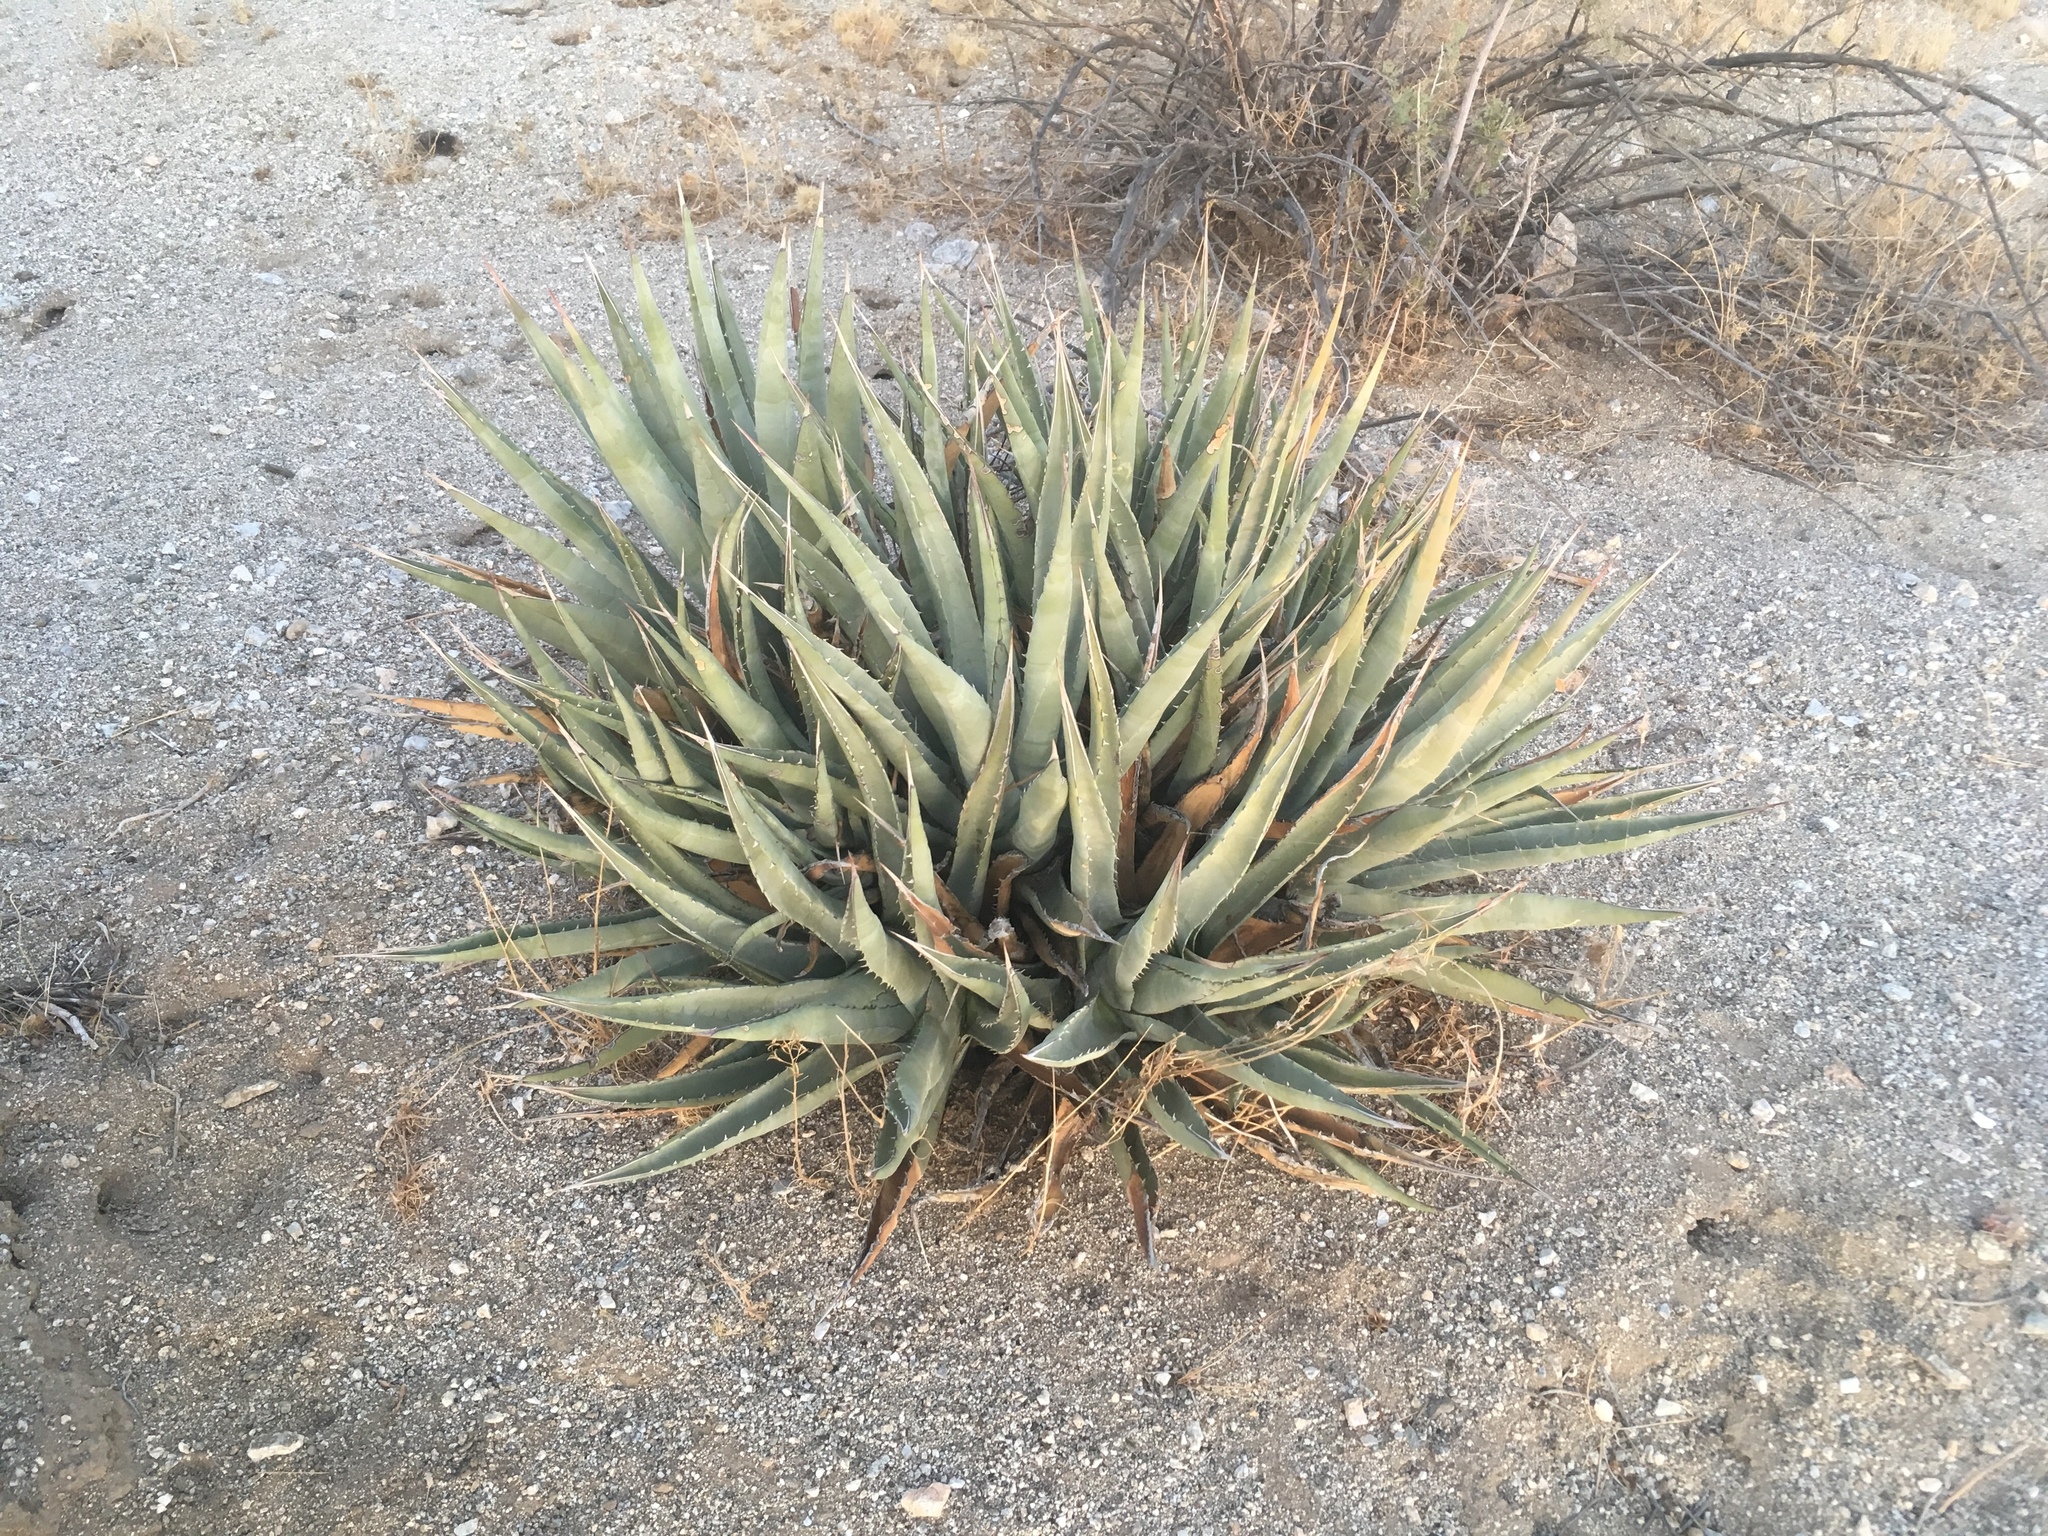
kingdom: Plantae
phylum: Tracheophyta
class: Liliopsida
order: Asparagales
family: Asparagaceae
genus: Agave
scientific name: Agave deserti
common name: Desert agave
